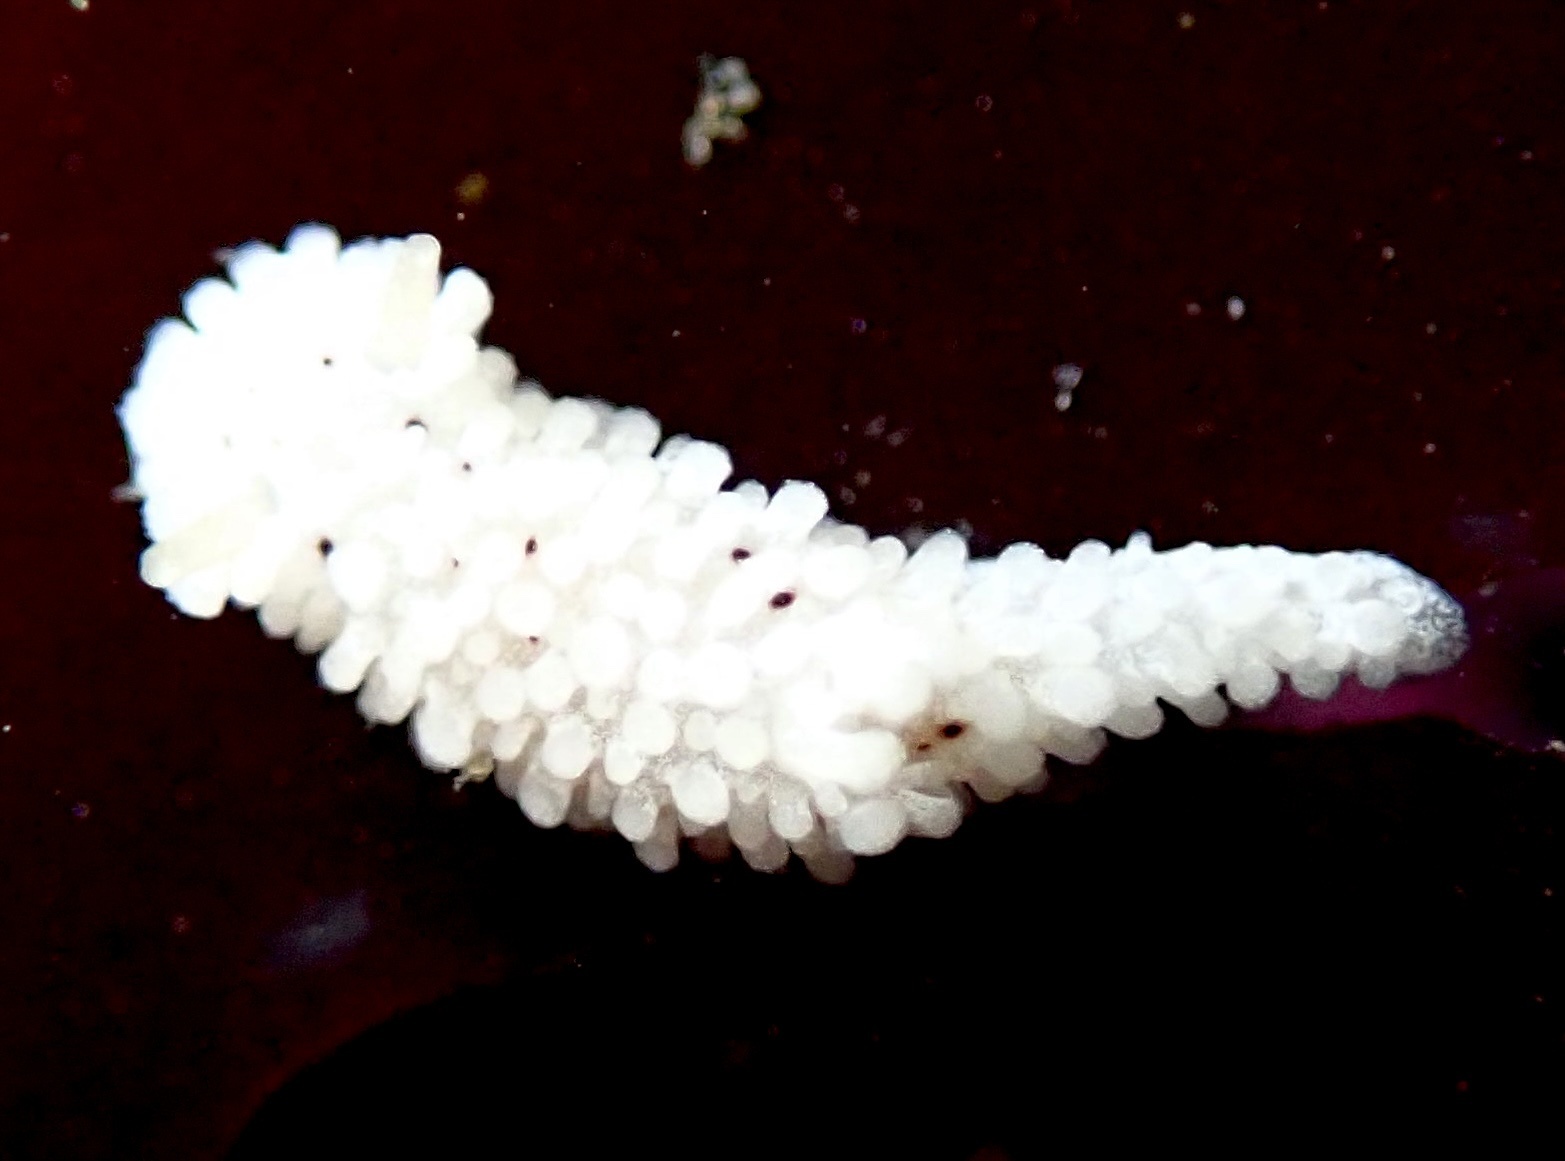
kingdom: Animalia
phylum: Mollusca
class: Gastropoda
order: Nudibranchia
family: Aegiridae
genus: Aegires
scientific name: Aegires albopunctatus
